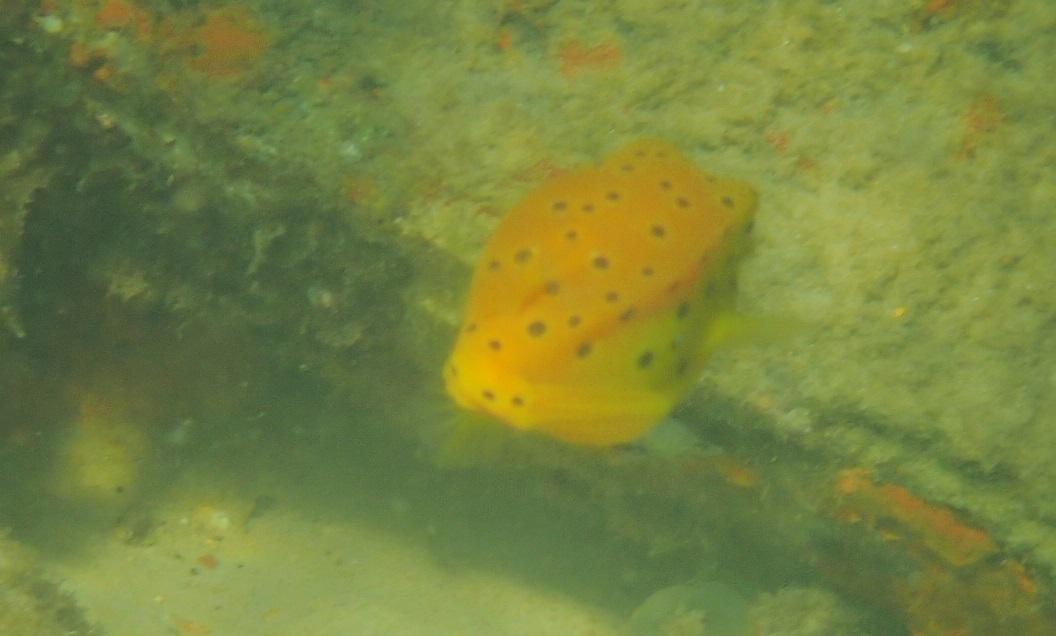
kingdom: Animalia
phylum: Chordata
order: Tetraodontiformes
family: Ostraciidae
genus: Ostracion
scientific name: Ostracion cubicus
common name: Cube trunkfish
